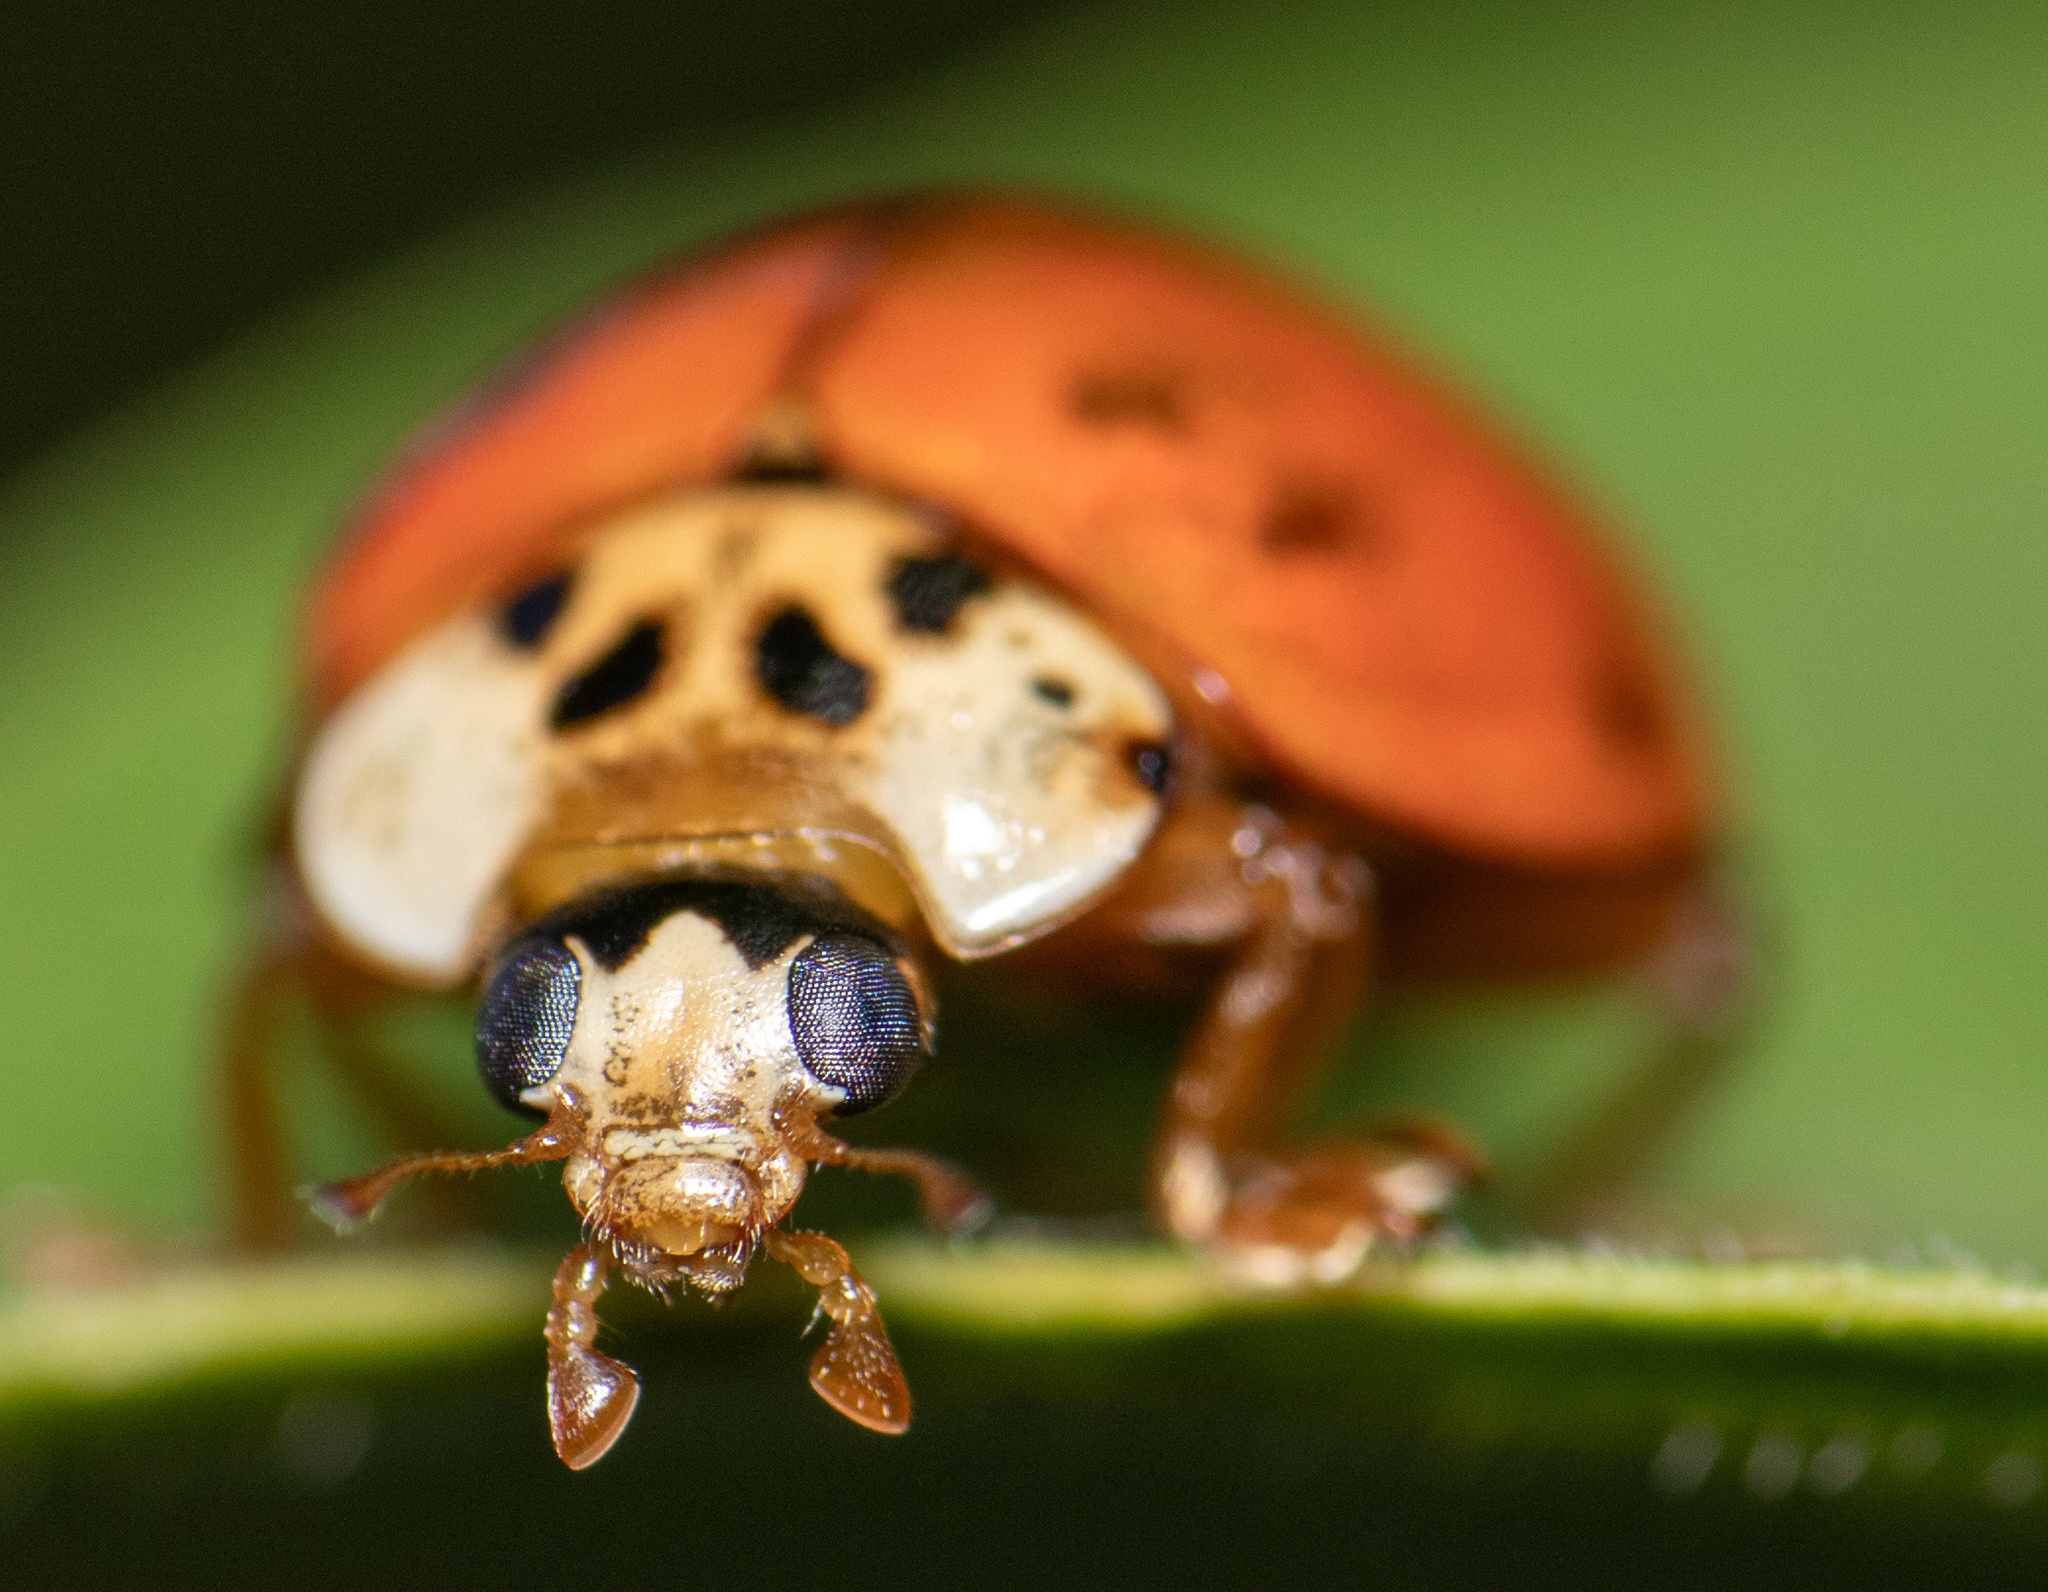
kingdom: Animalia
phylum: Arthropoda
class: Insecta
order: Coleoptera
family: Coccinellidae
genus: Harmonia
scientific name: Harmonia axyridis
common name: Harlequin ladybird
